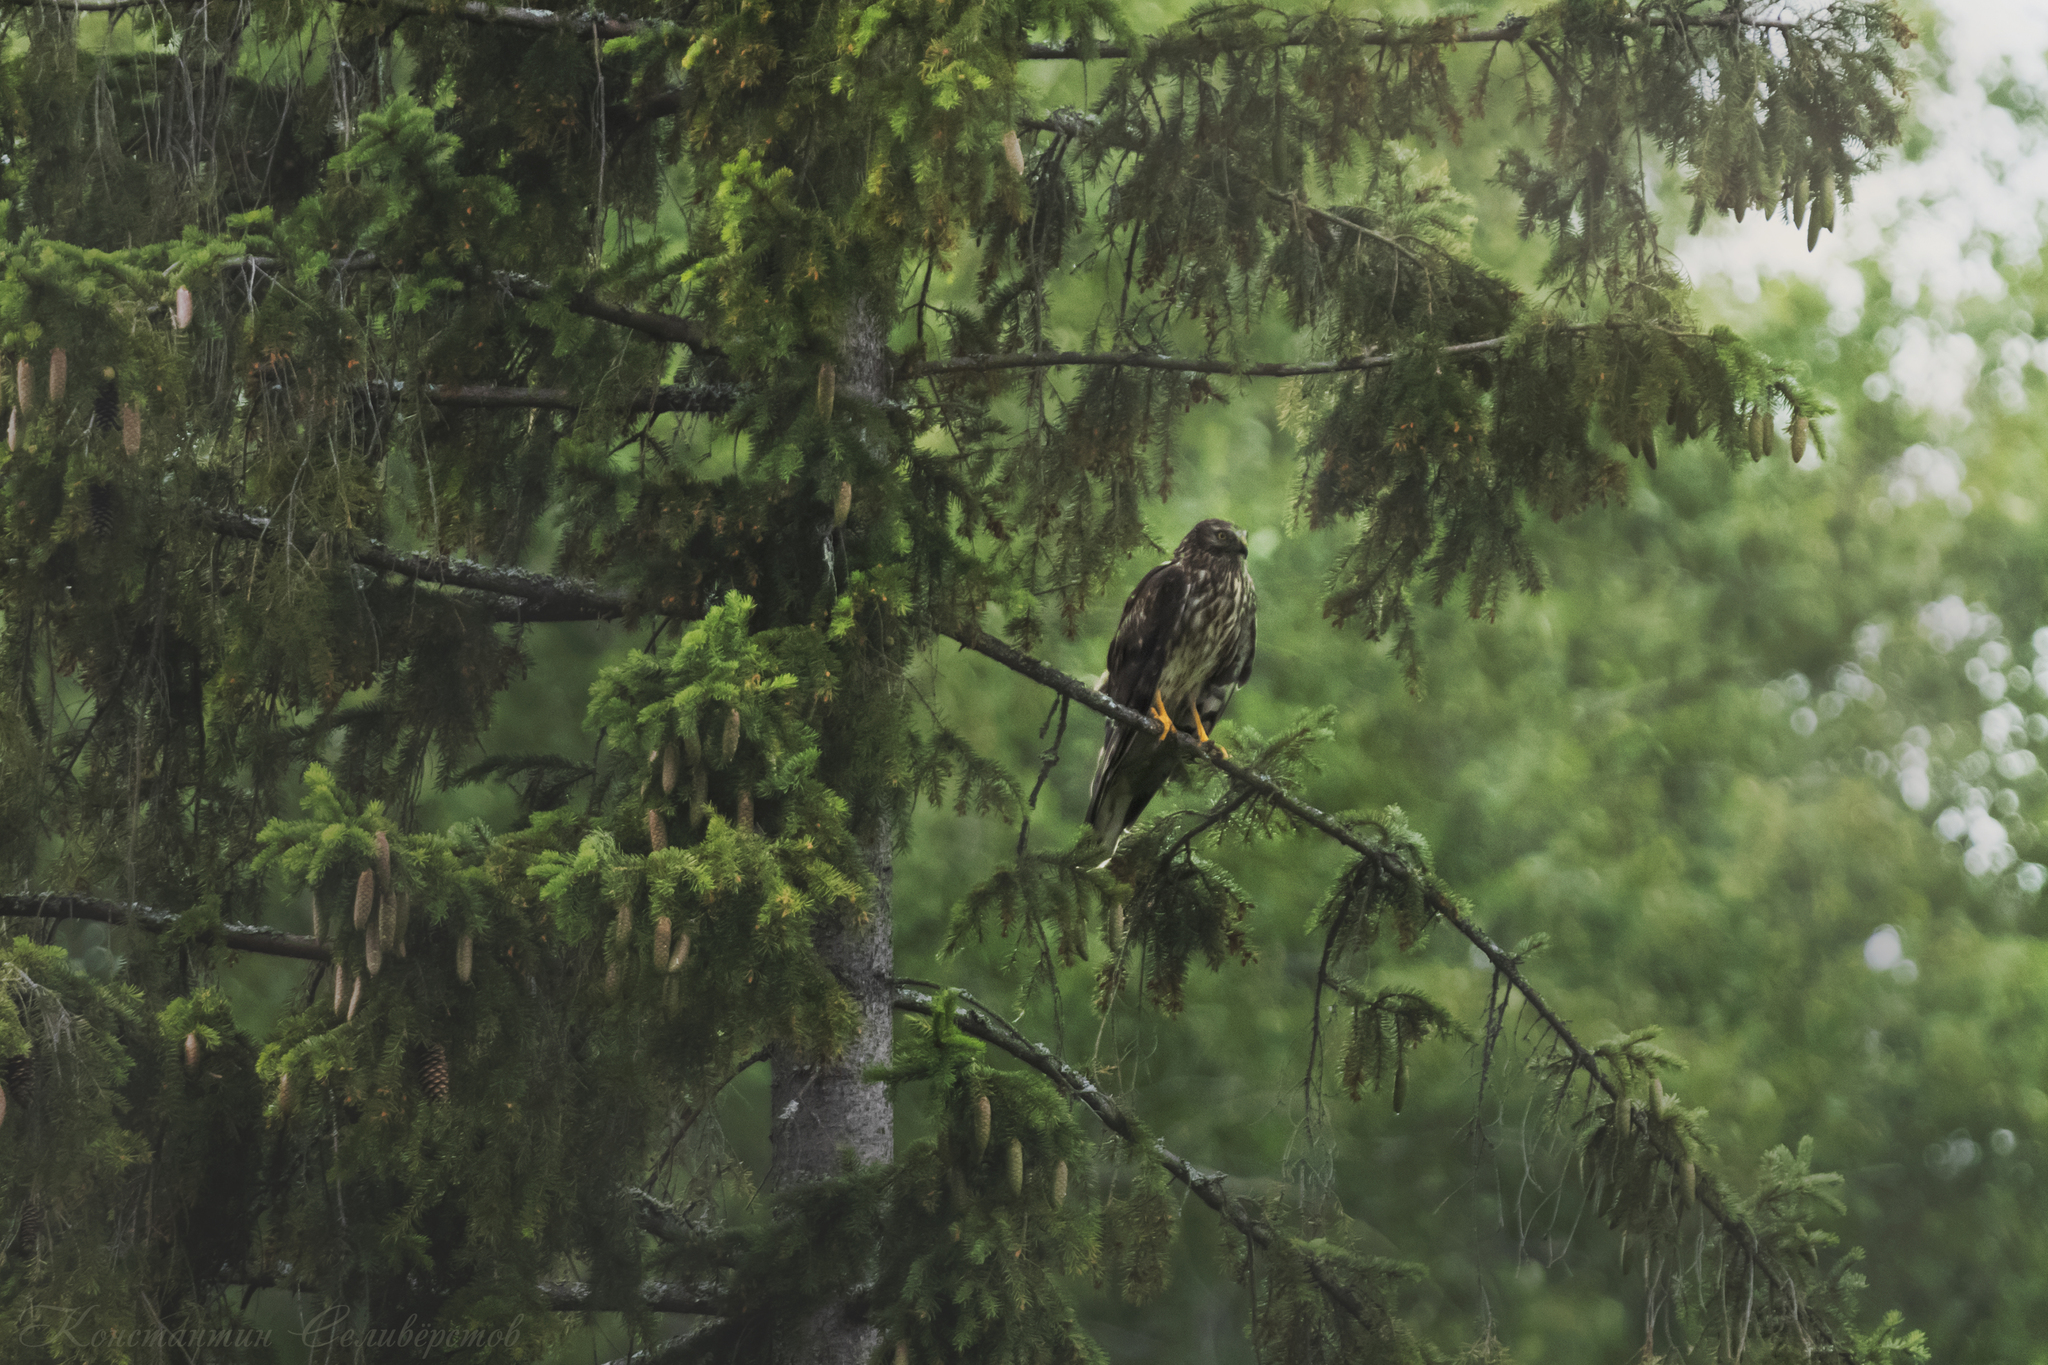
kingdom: Animalia
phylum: Chordata
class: Aves
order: Accipitriformes
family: Accipitridae
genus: Circus
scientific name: Circus cyaneus
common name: Hen harrier
